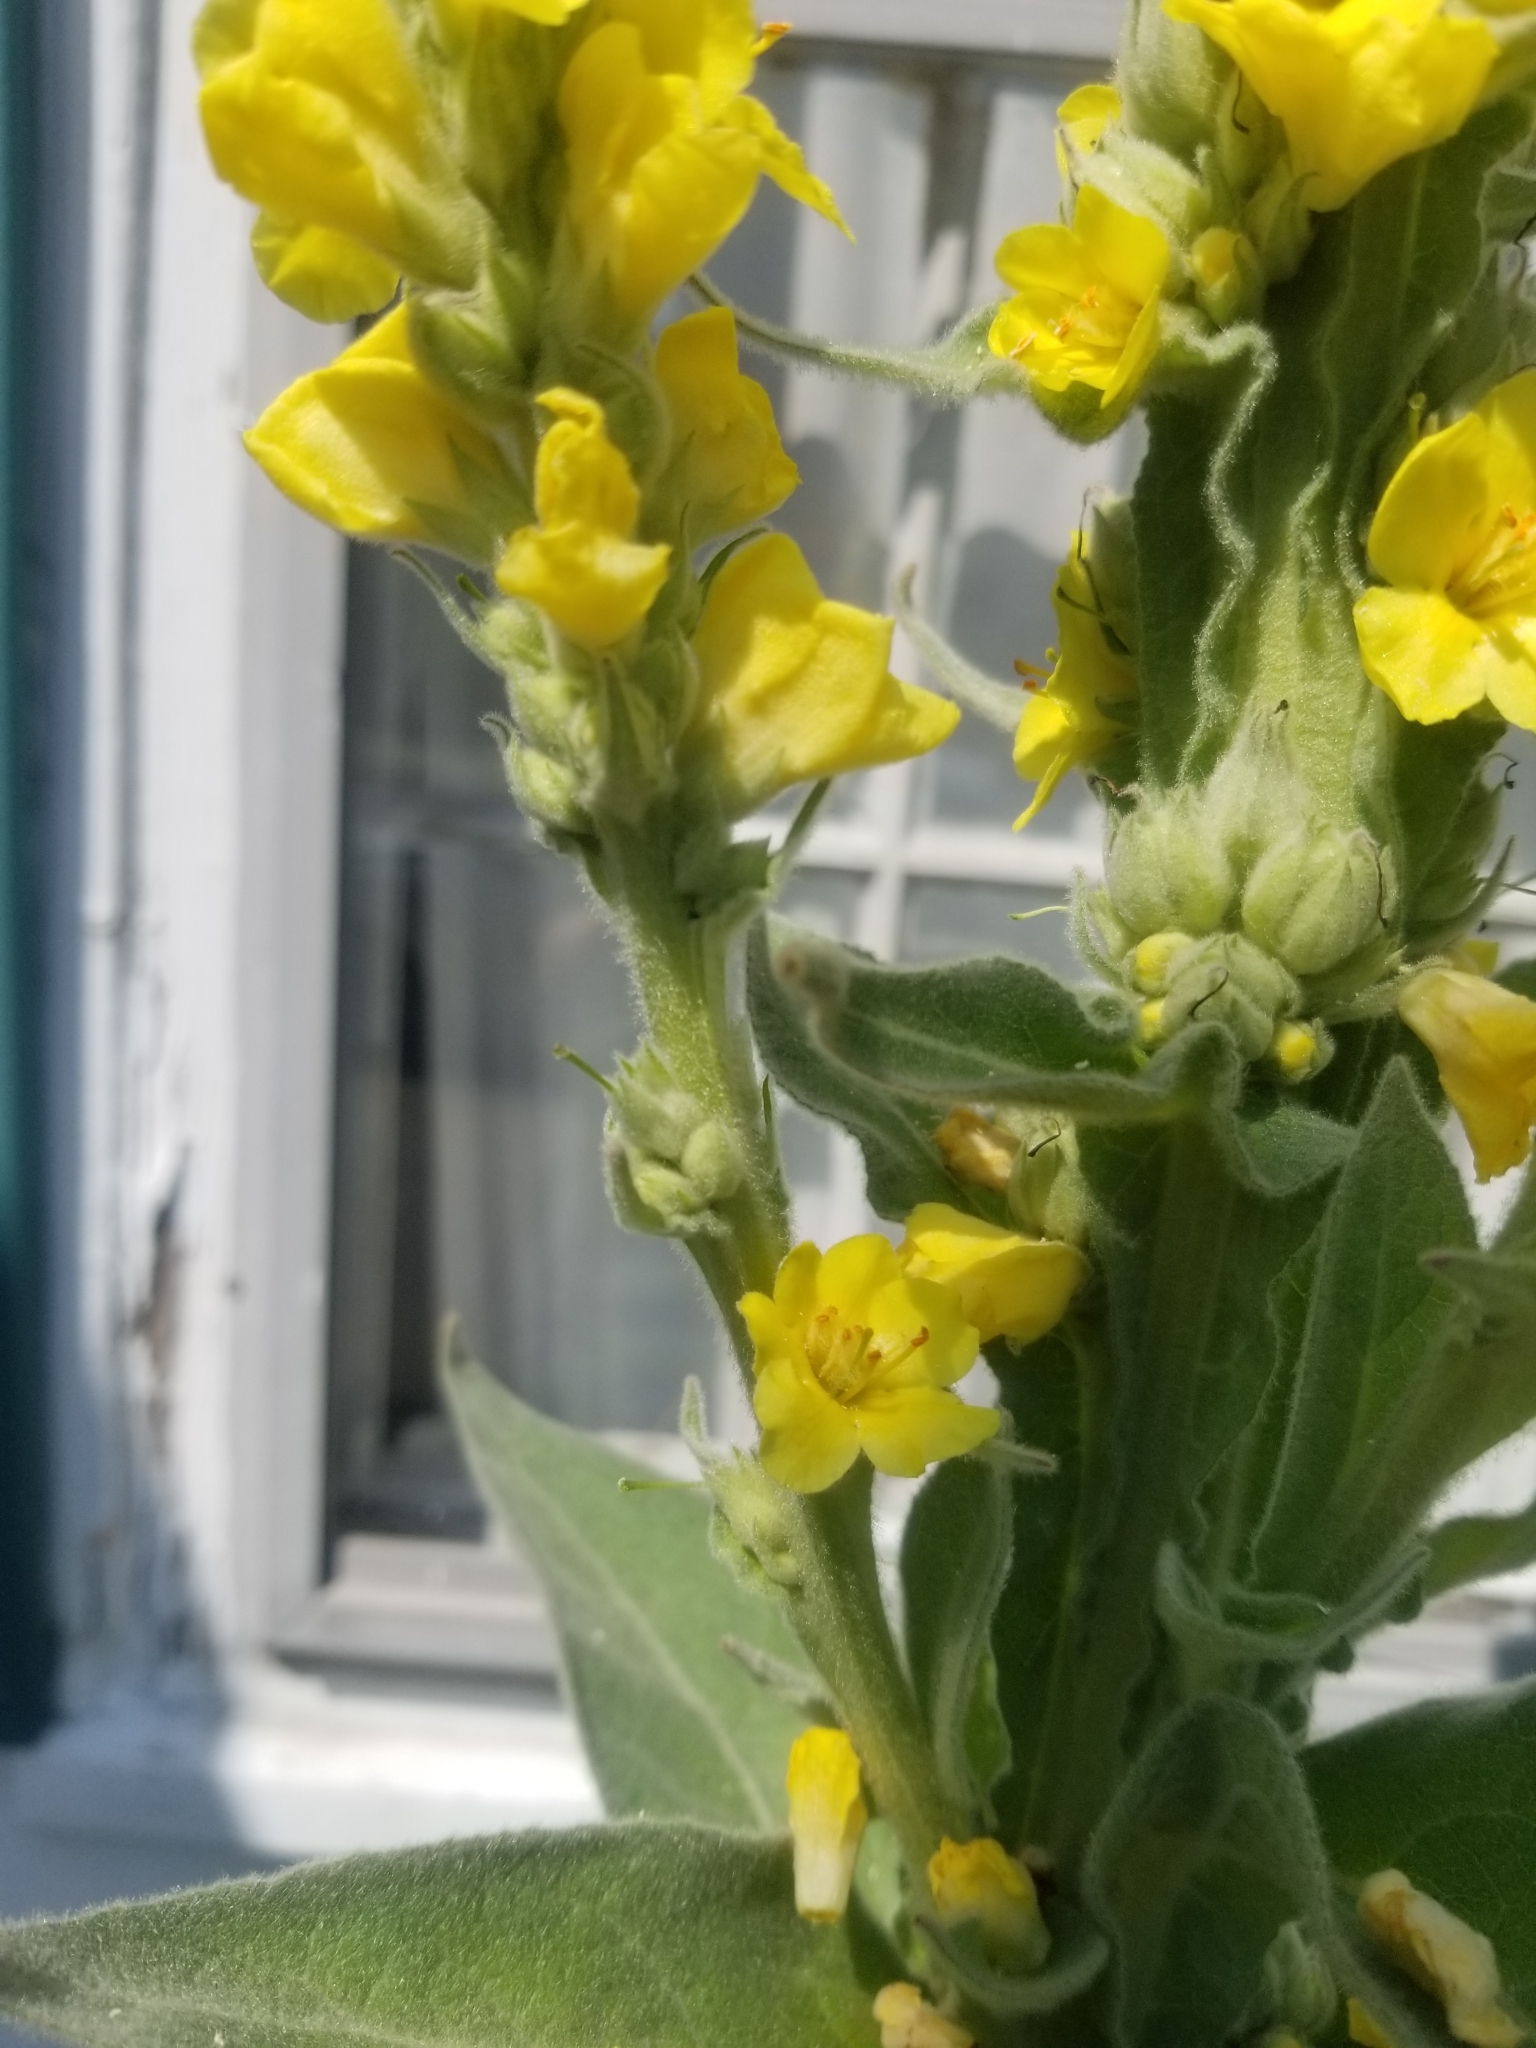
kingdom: Plantae
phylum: Tracheophyta
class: Magnoliopsida
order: Lamiales
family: Scrophulariaceae
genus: Verbascum
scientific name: Verbascum thapsus
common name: Common mullein
